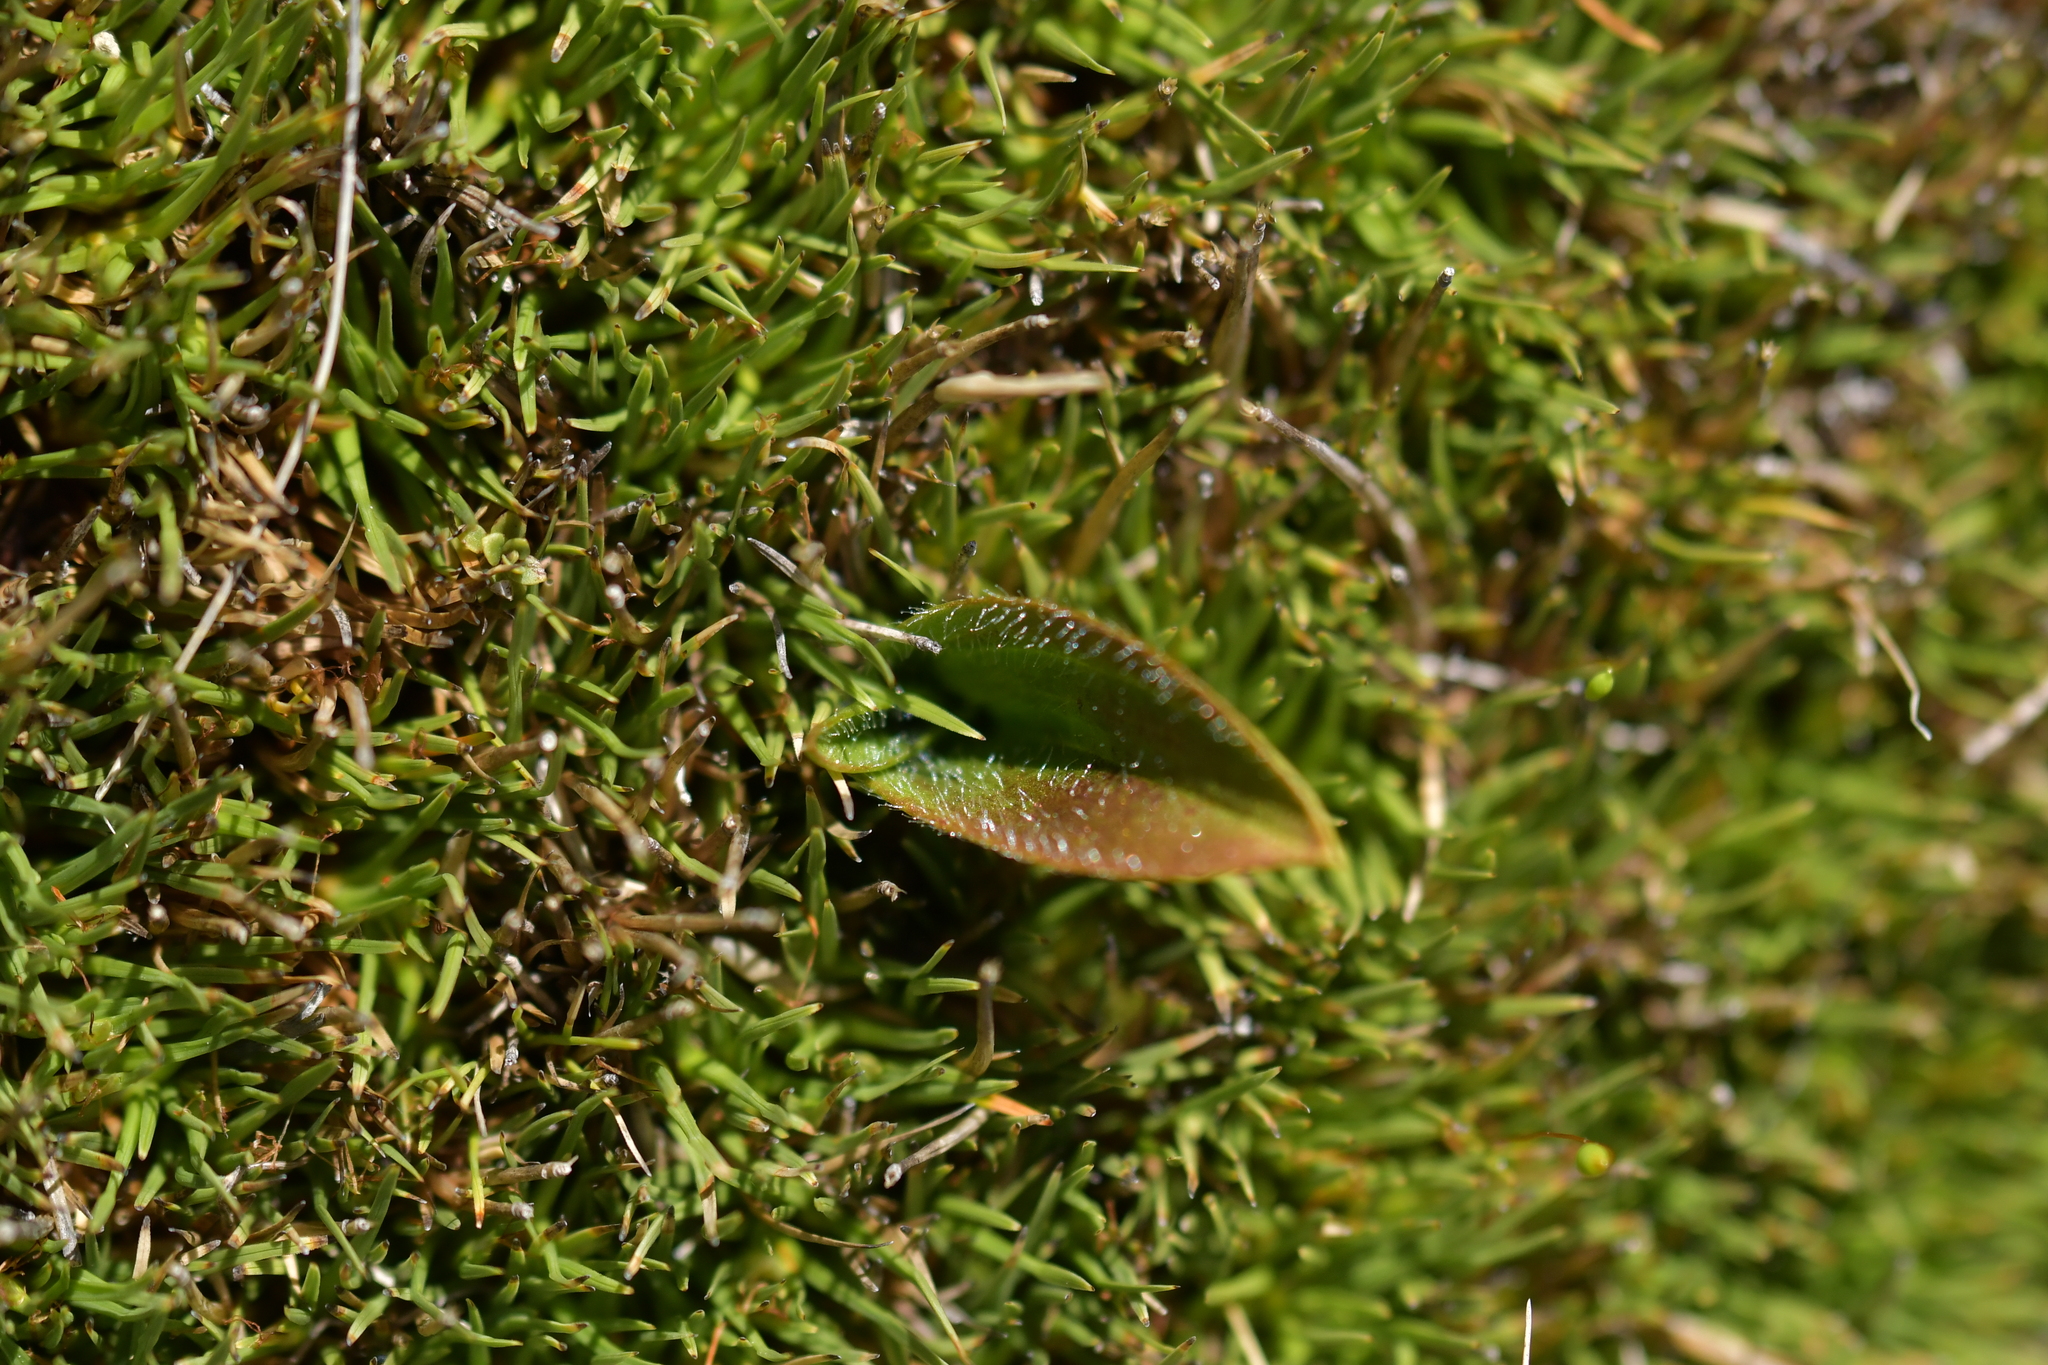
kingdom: Plantae
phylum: Tracheophyta
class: Liliopsida
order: Asparagales
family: Orchidaceae
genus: Aporostylis
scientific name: Aporostylis bifolia
